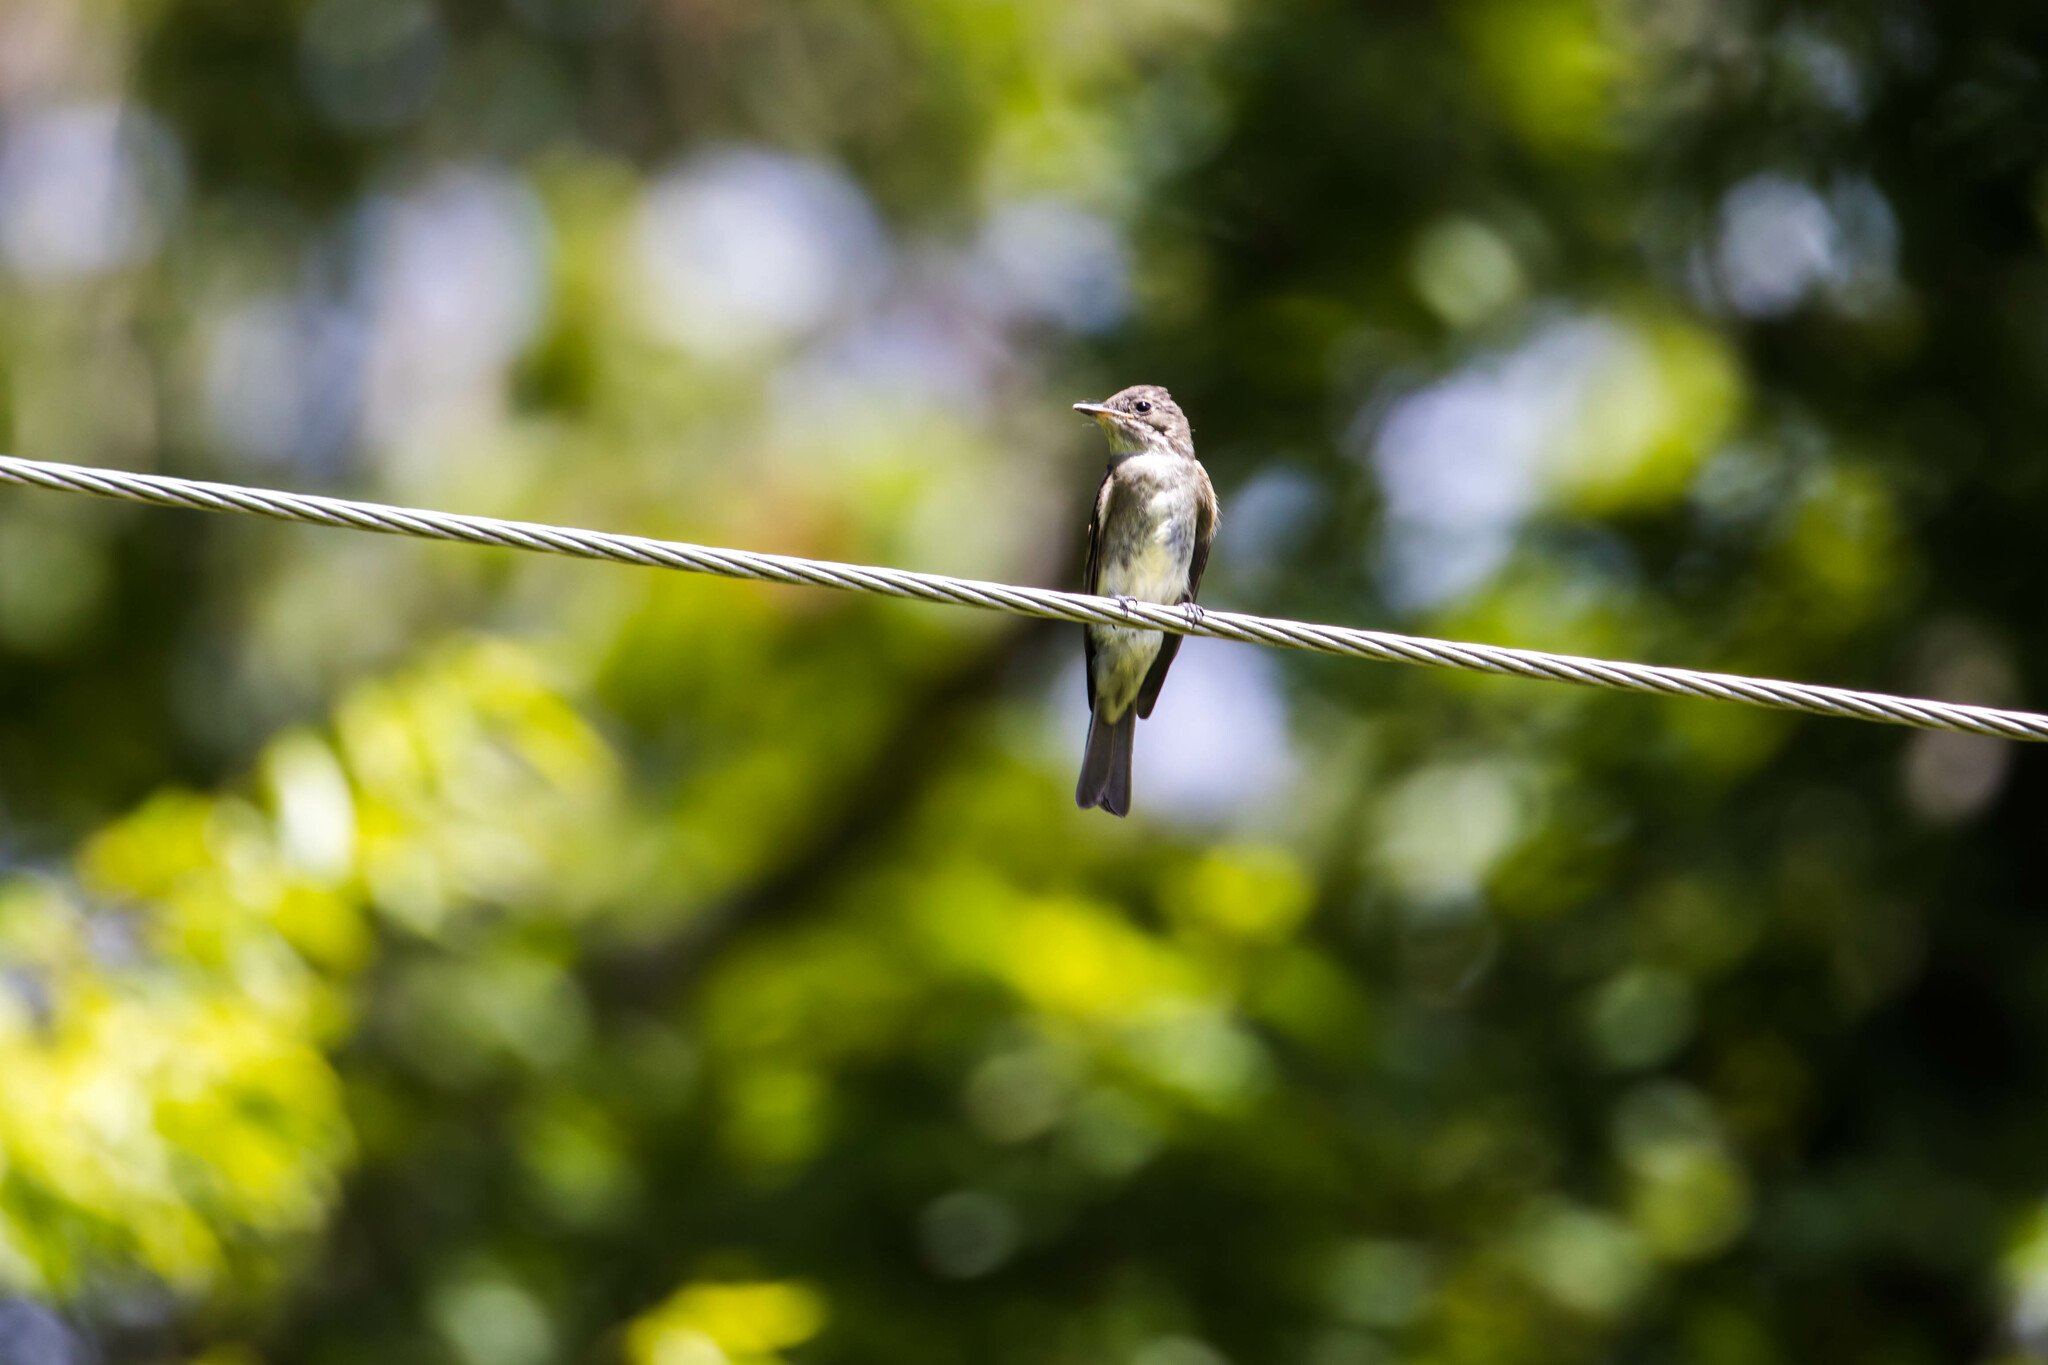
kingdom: Animalia
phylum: Chordata
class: Aves
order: Passeriformes
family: Tyrannidae
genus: Contopus
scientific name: Contopus virens
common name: Eastern wood-pewee
